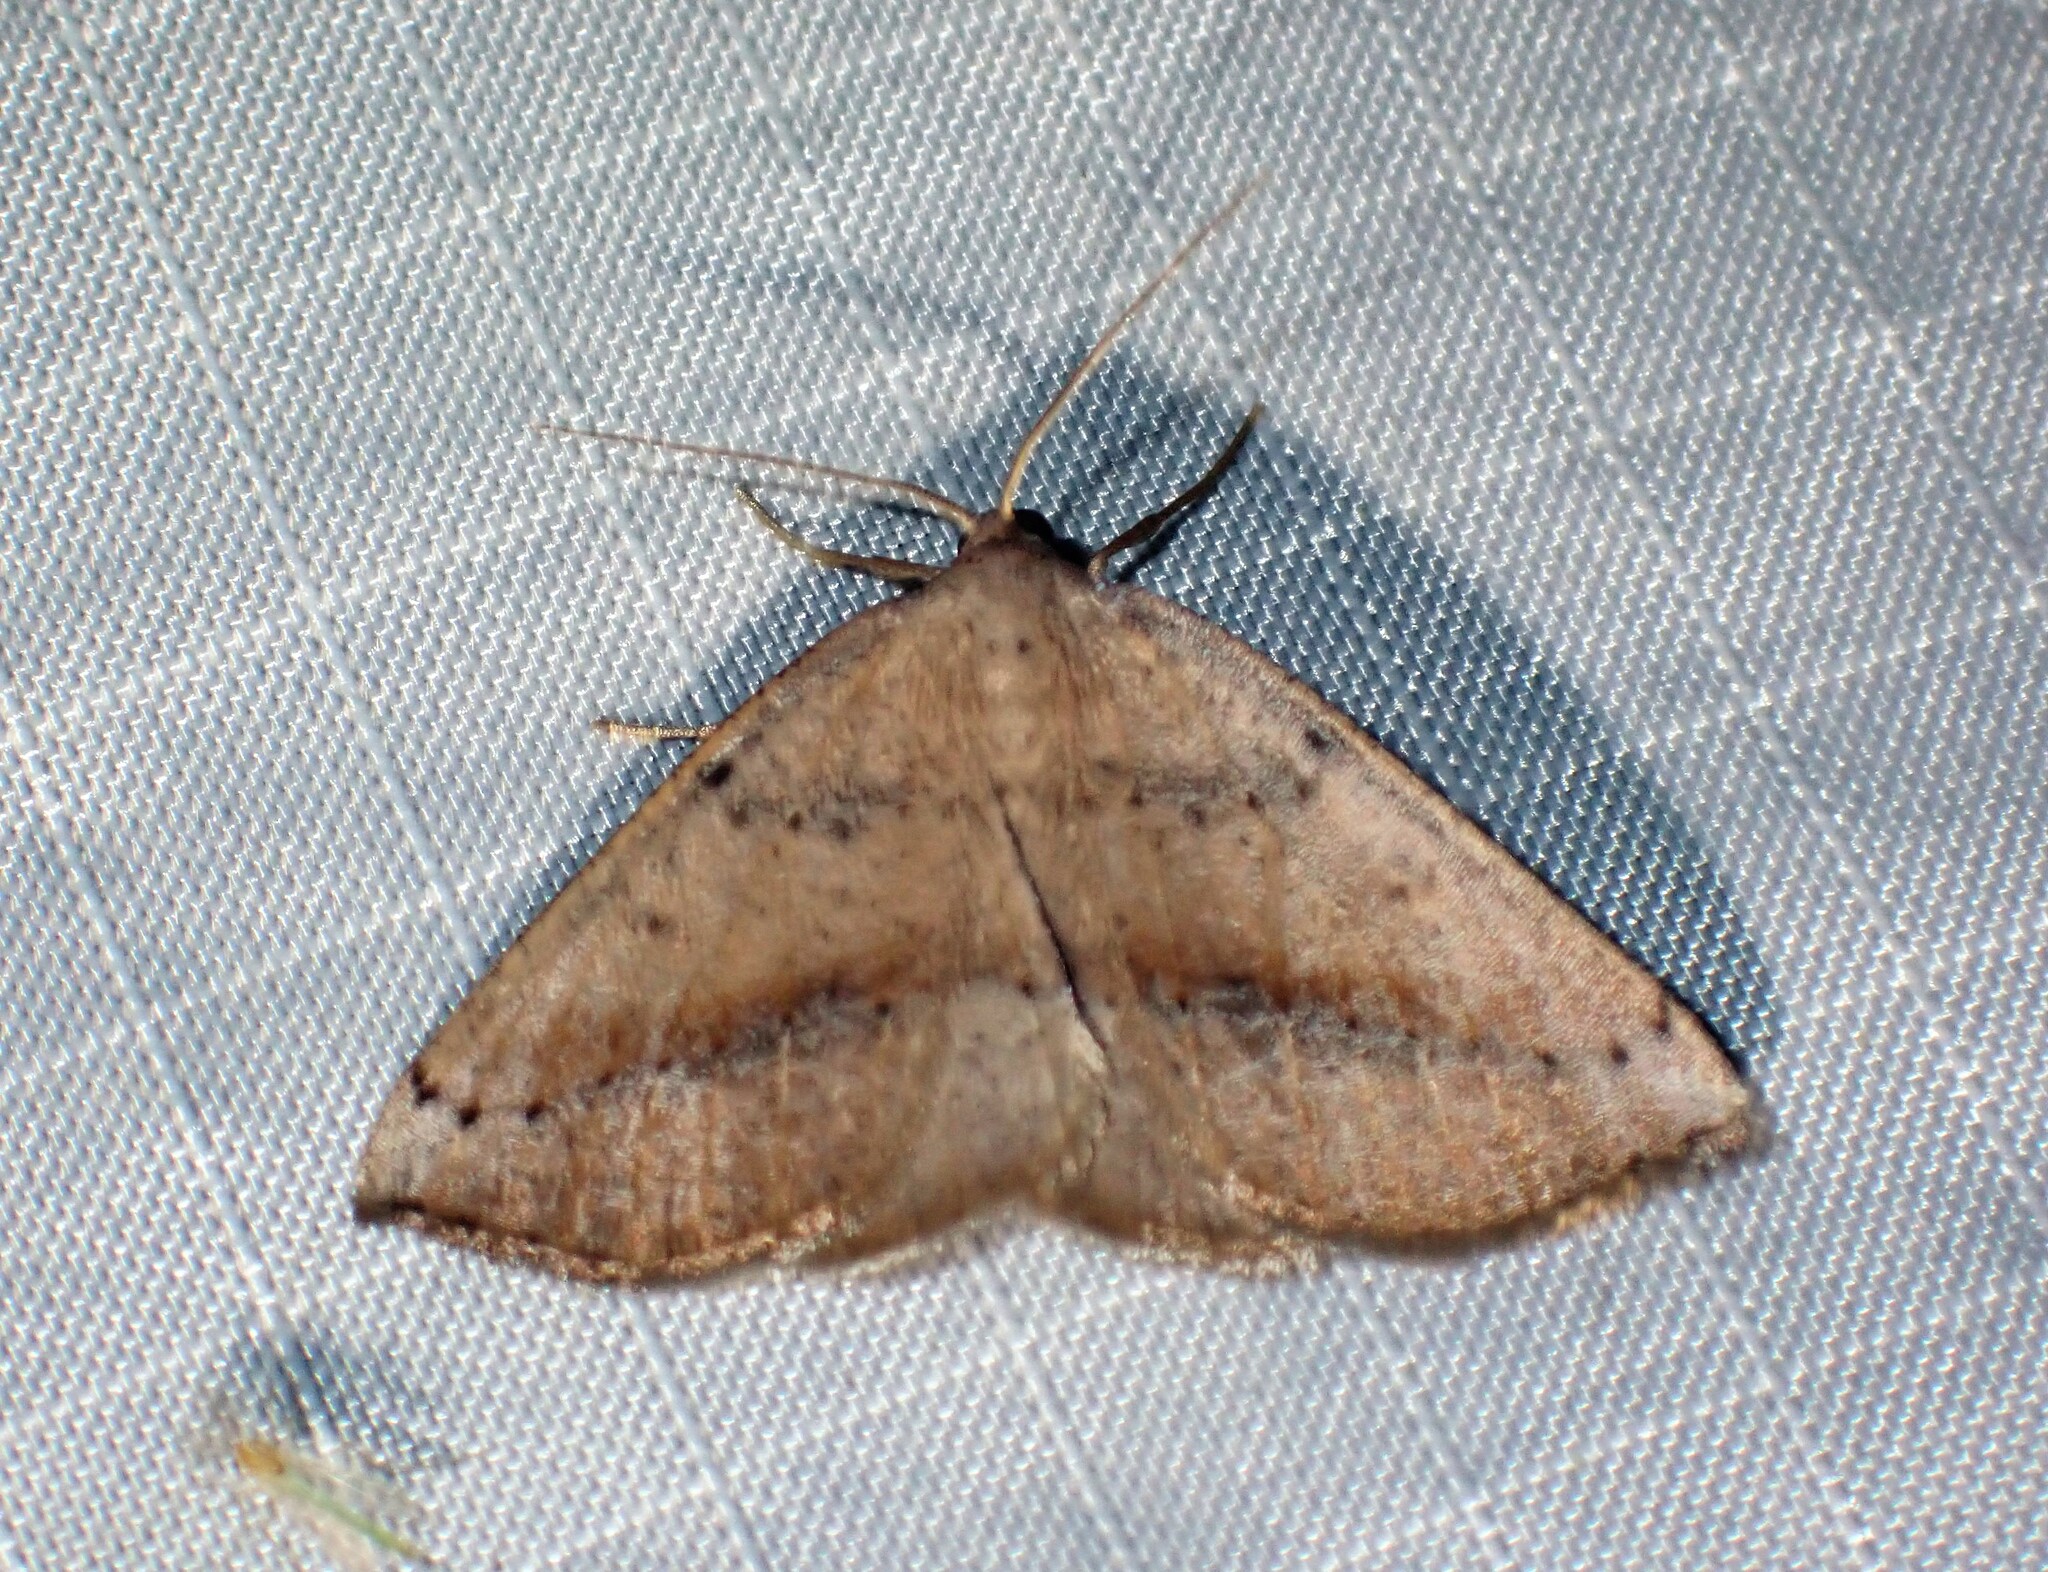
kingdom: Animalia
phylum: Arthropoda
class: Insecta
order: Lepidoptera
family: Geometridae
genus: Tacparia
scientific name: Tacparia atropunctata
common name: Northern pale alder
